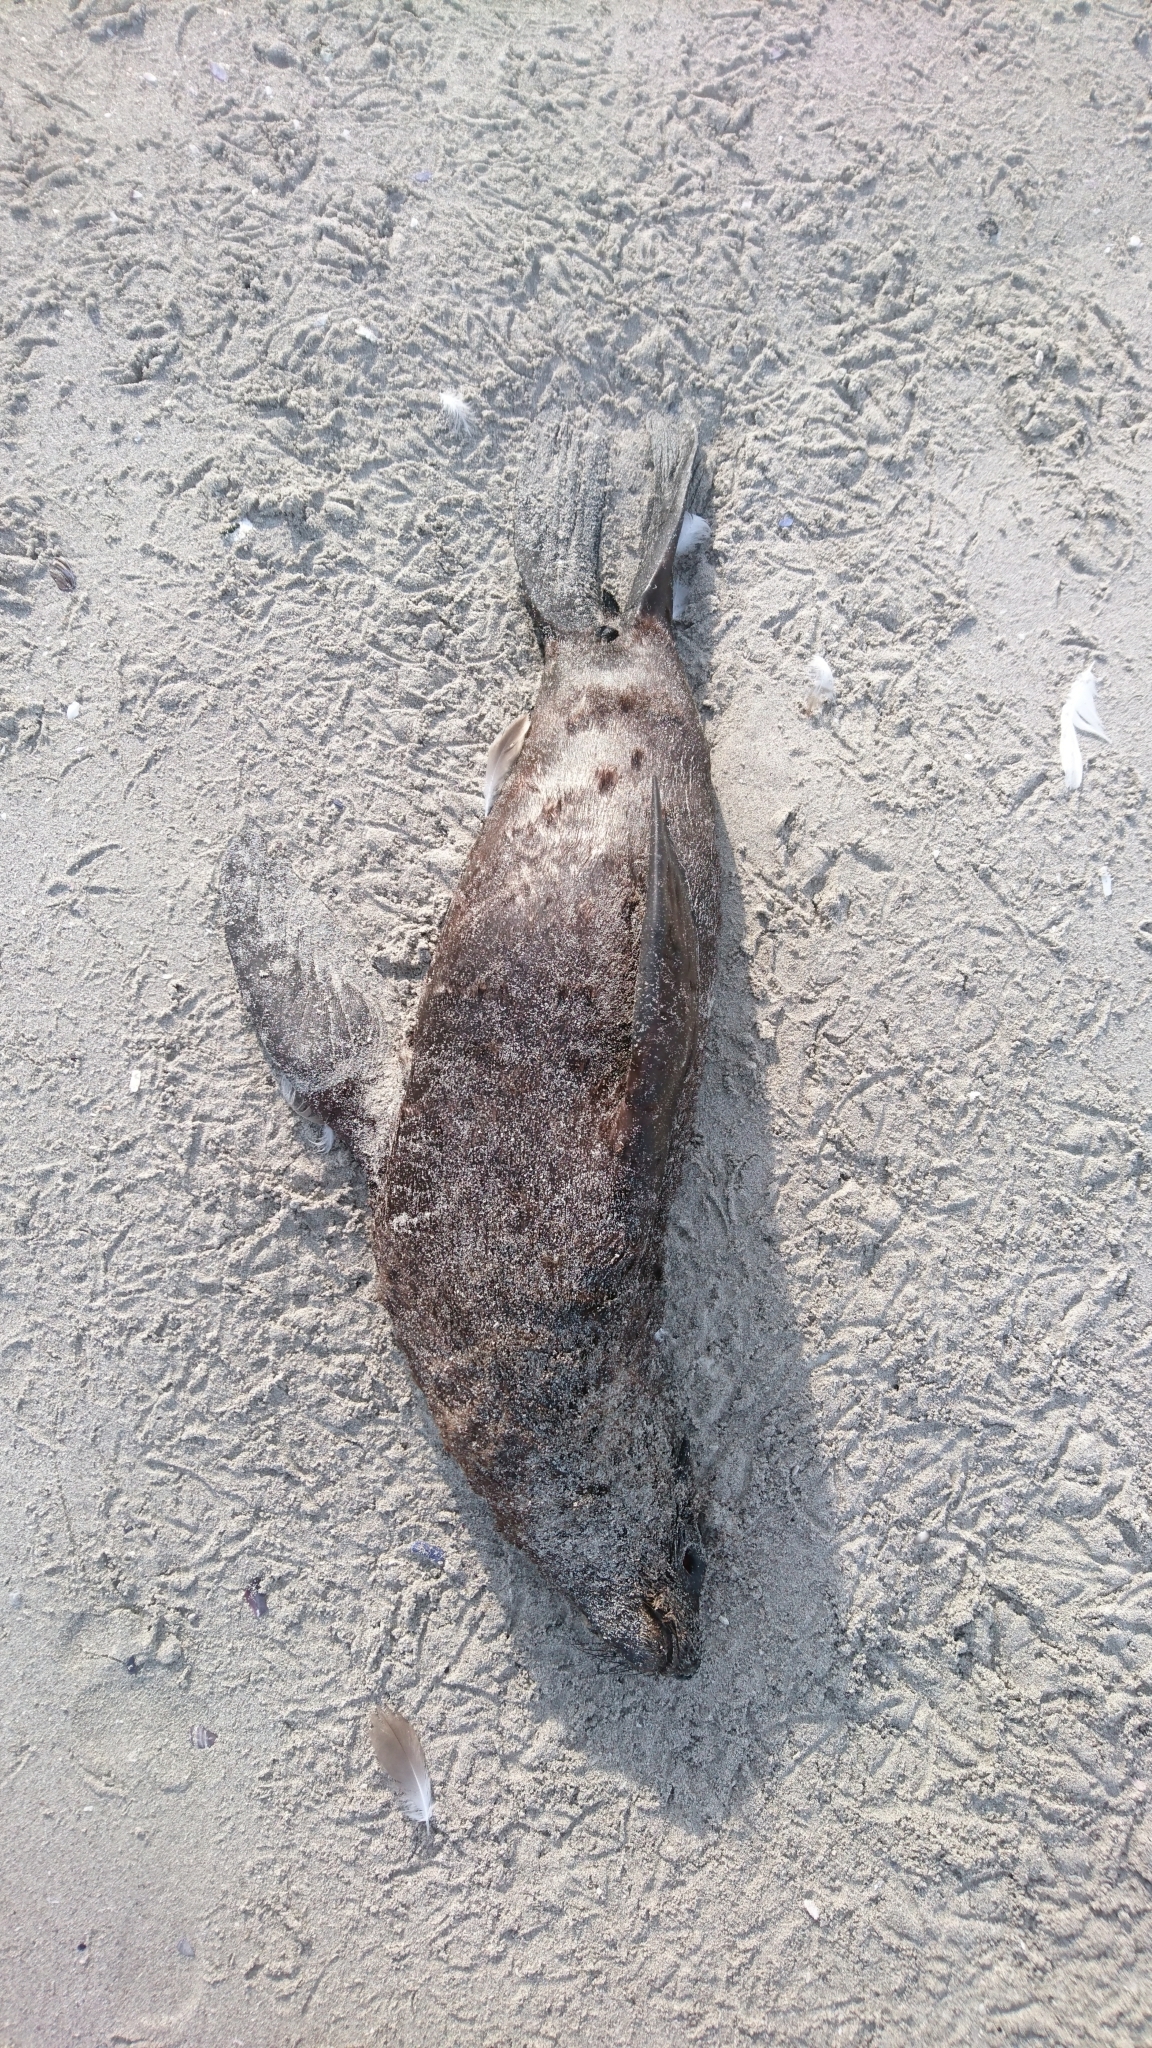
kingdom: Animalia
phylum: Chordata
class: Mammalia
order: Carnivora
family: Otariidae
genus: Arctocephalus
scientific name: Arctocephalus pusillus
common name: Brown fur seal
